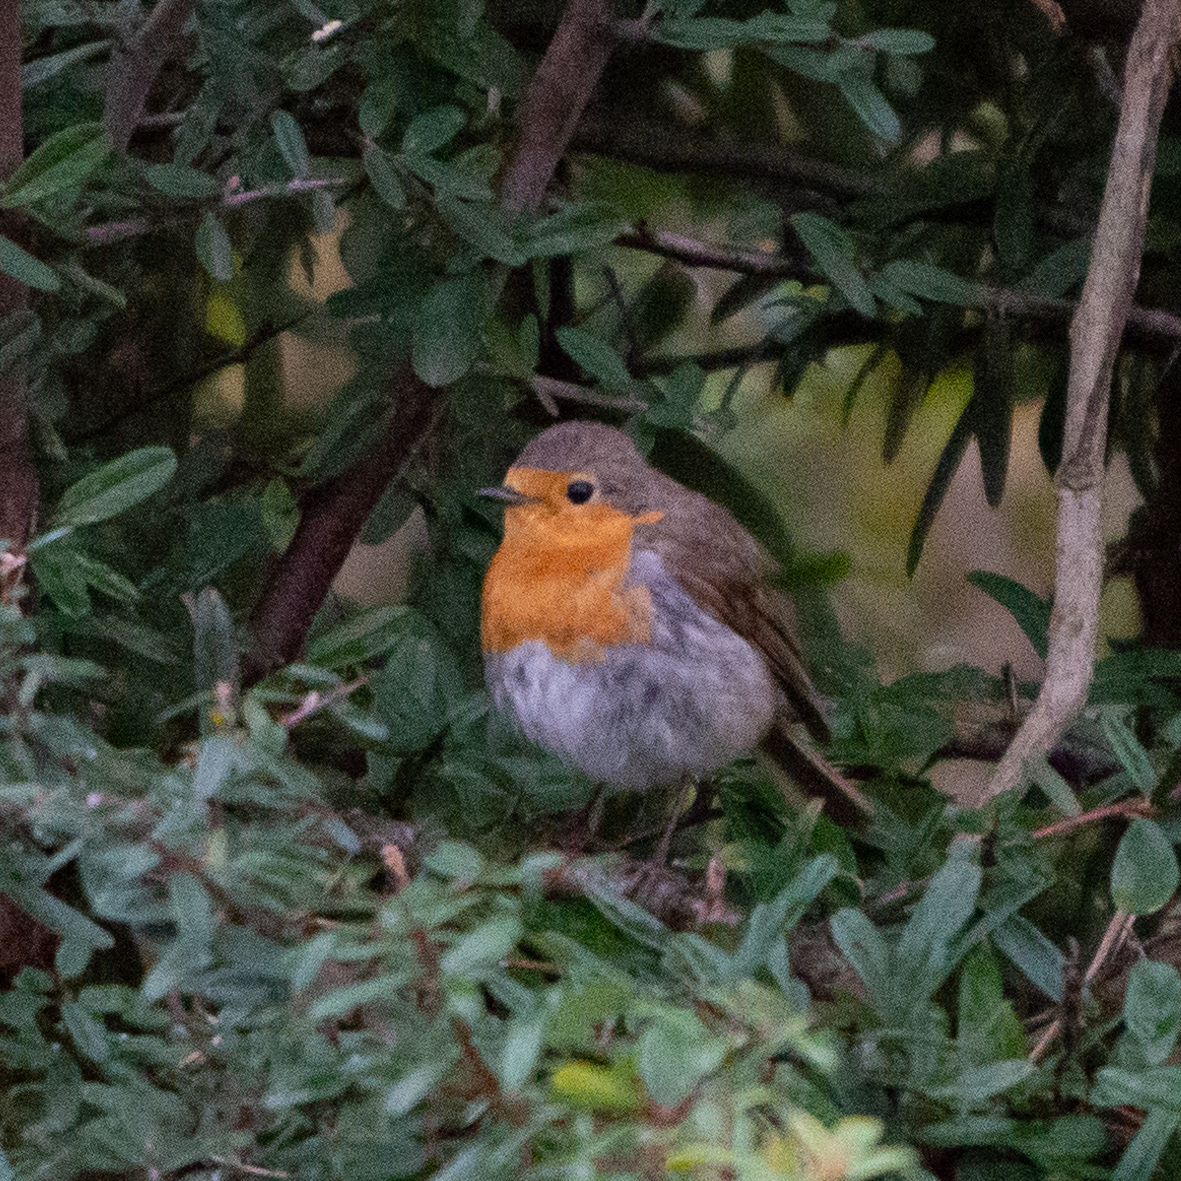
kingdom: Animalia
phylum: Chordata
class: Aves
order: Passeriformes
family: Muscicapidae
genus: Erithacus
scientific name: Erithacus rubecula
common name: European robin
